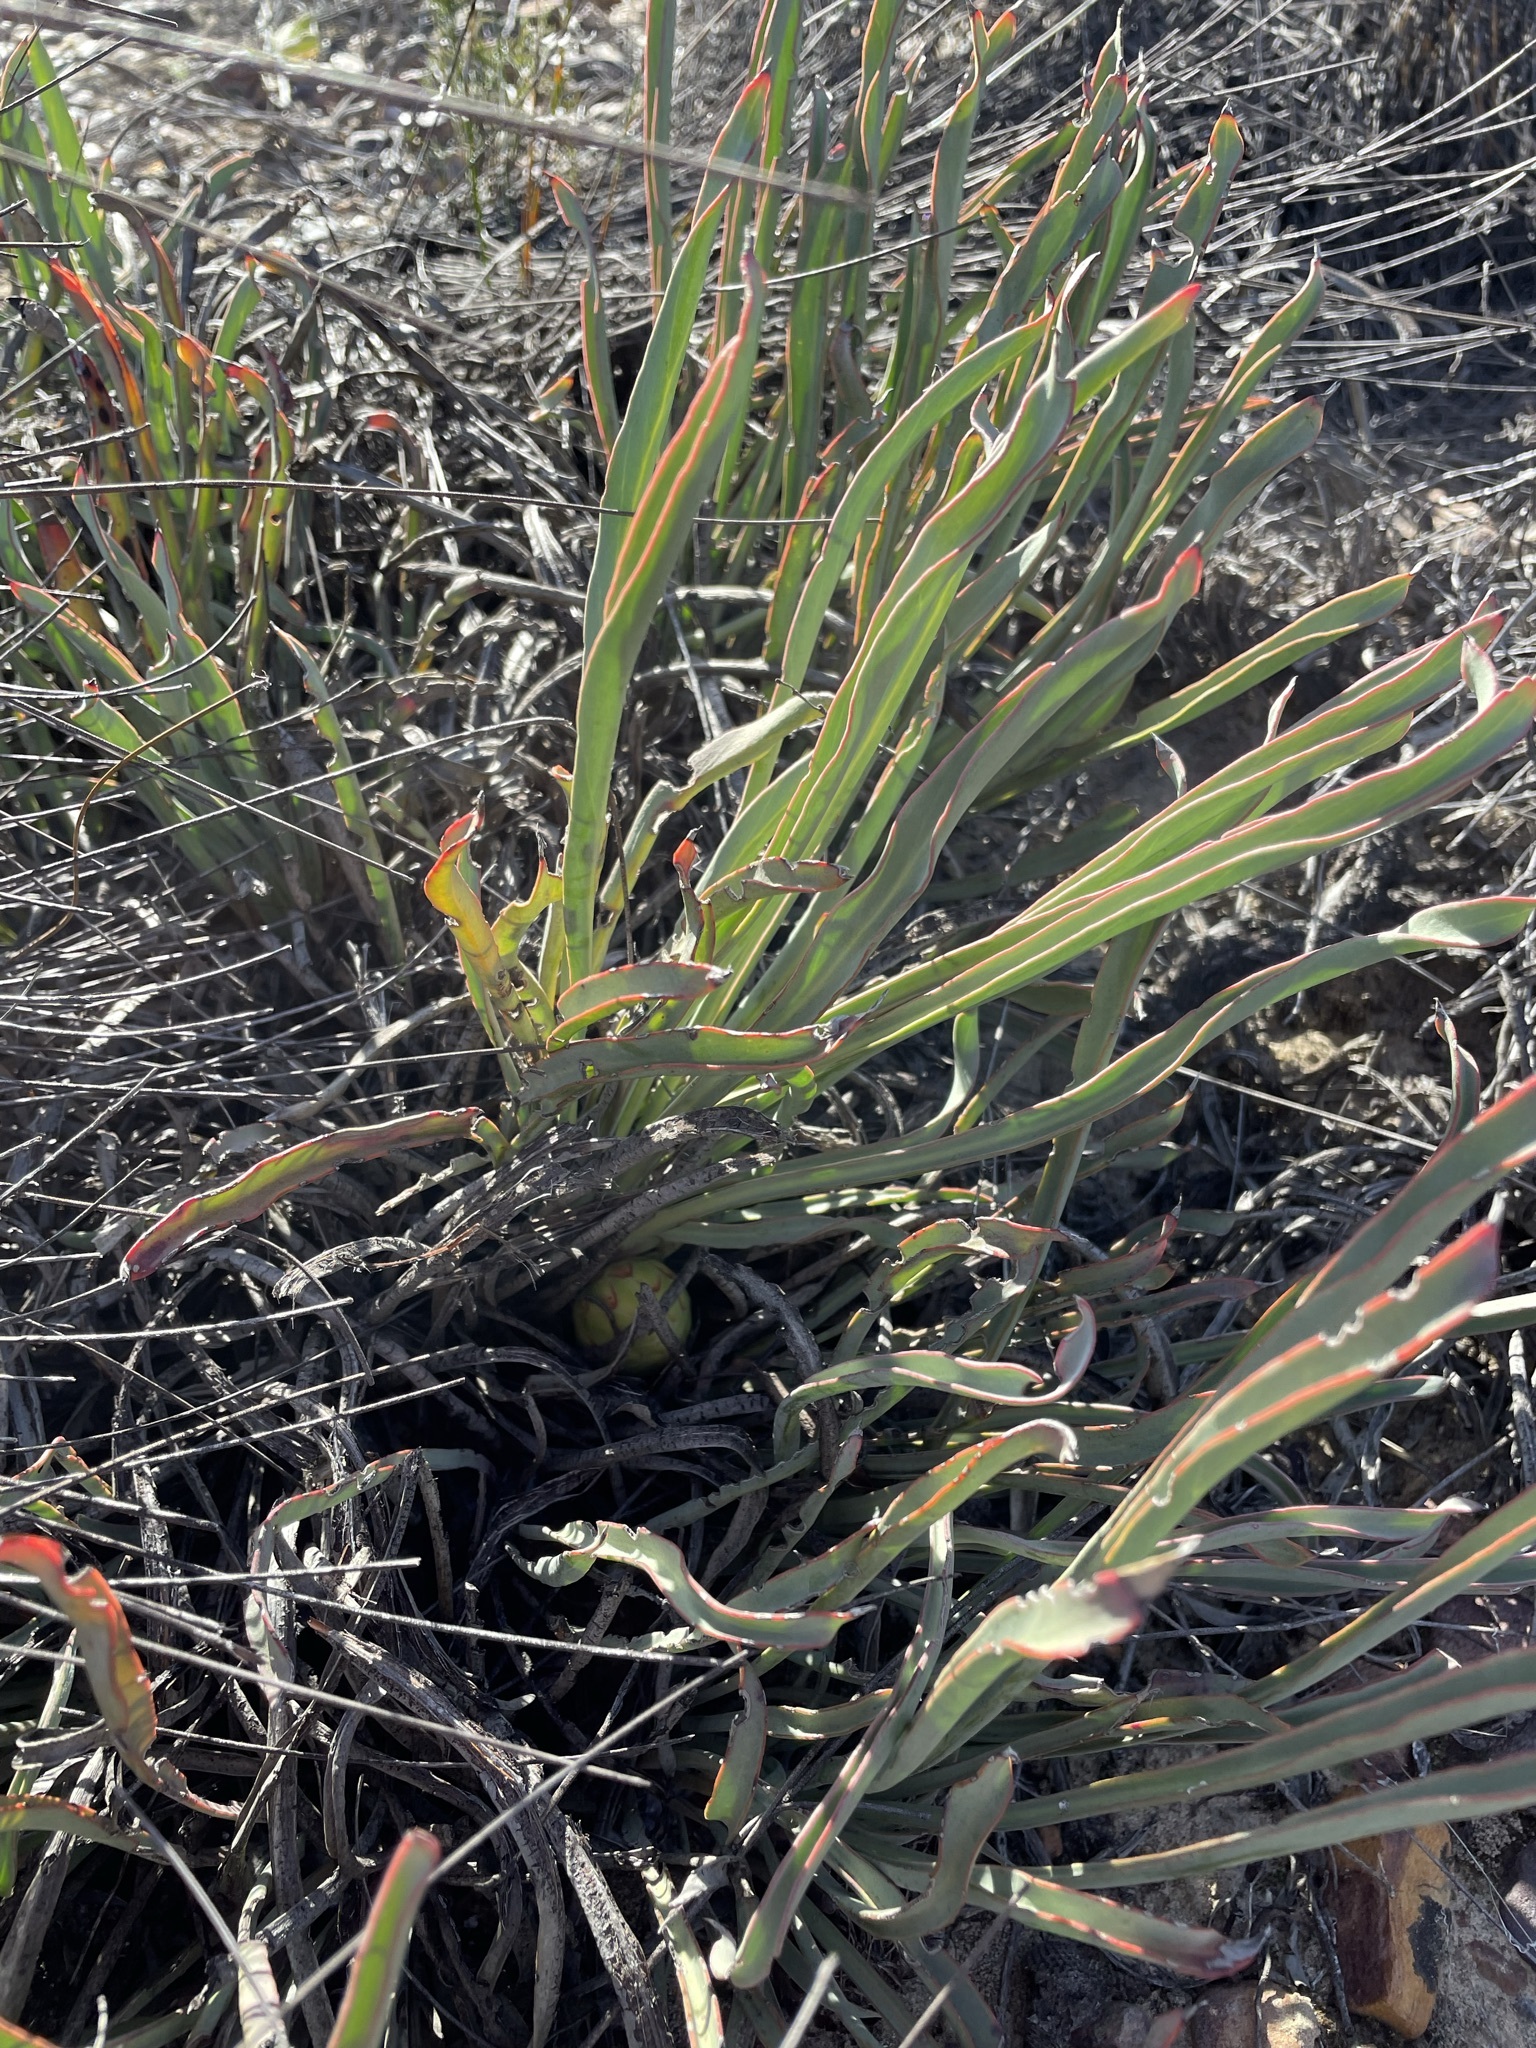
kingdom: Plantae
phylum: Tracheophyta
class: Magnoliopsida
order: Proteales
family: Proteaceae
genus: Protea
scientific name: Protea revoluta
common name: Rolled-leaf sugarbush
